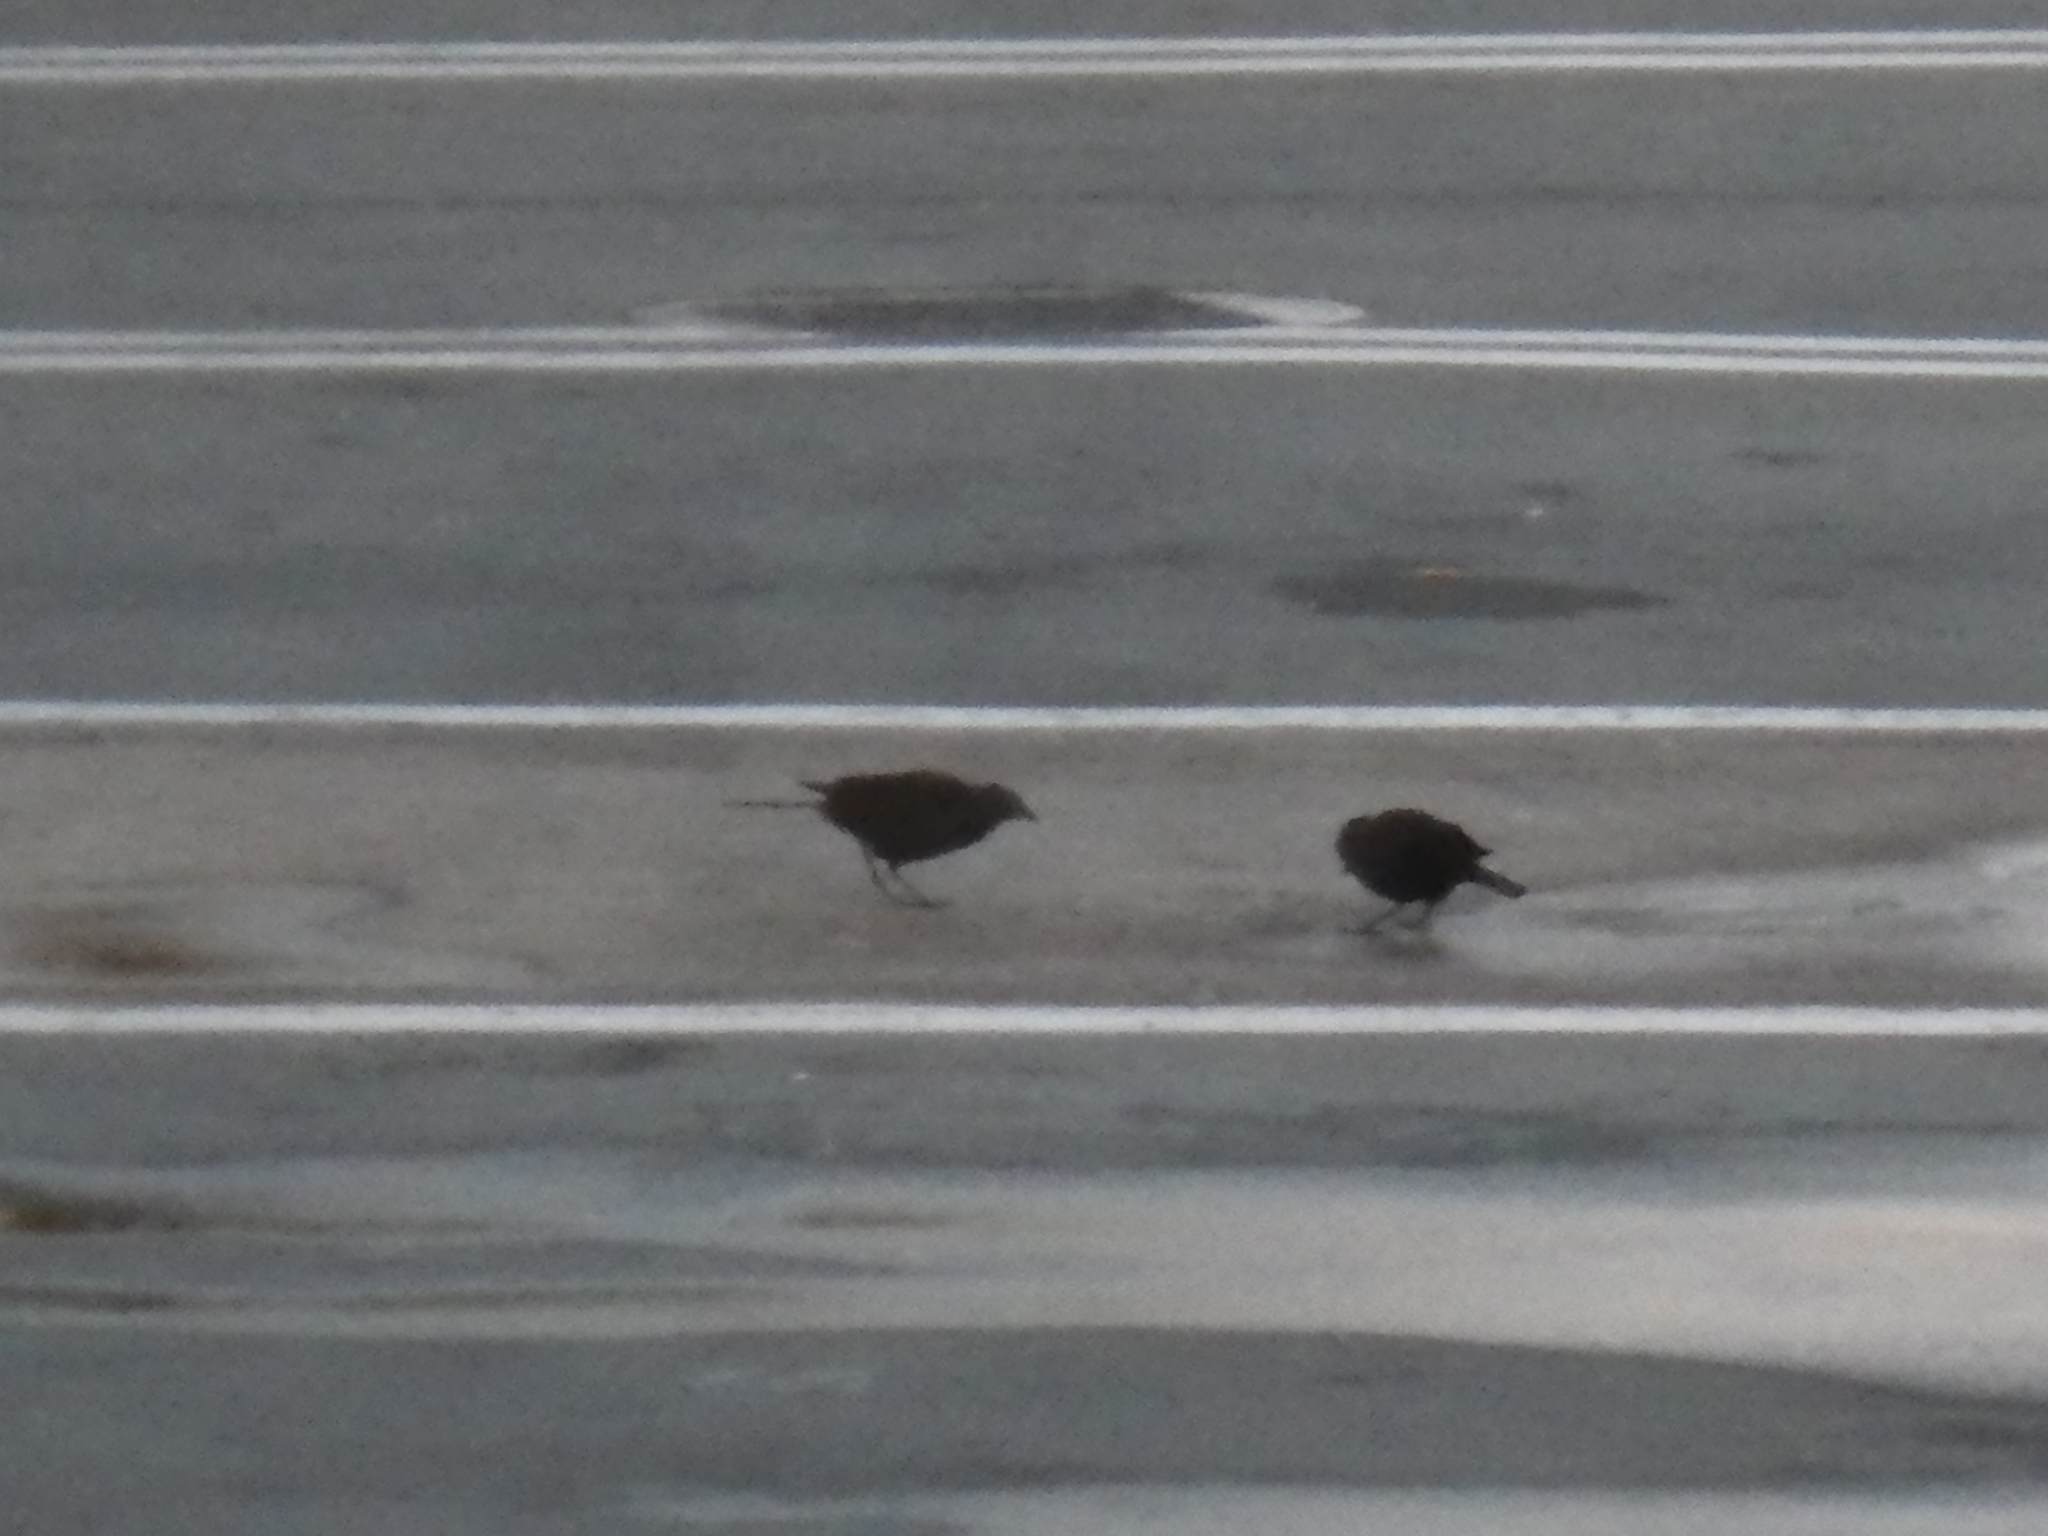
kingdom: Animalia
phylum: Chordata
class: Aves
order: Passeriformes
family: Icteridae
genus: Euphagus
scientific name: Euphagus cyanocephalus
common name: Brewer's blackbird
